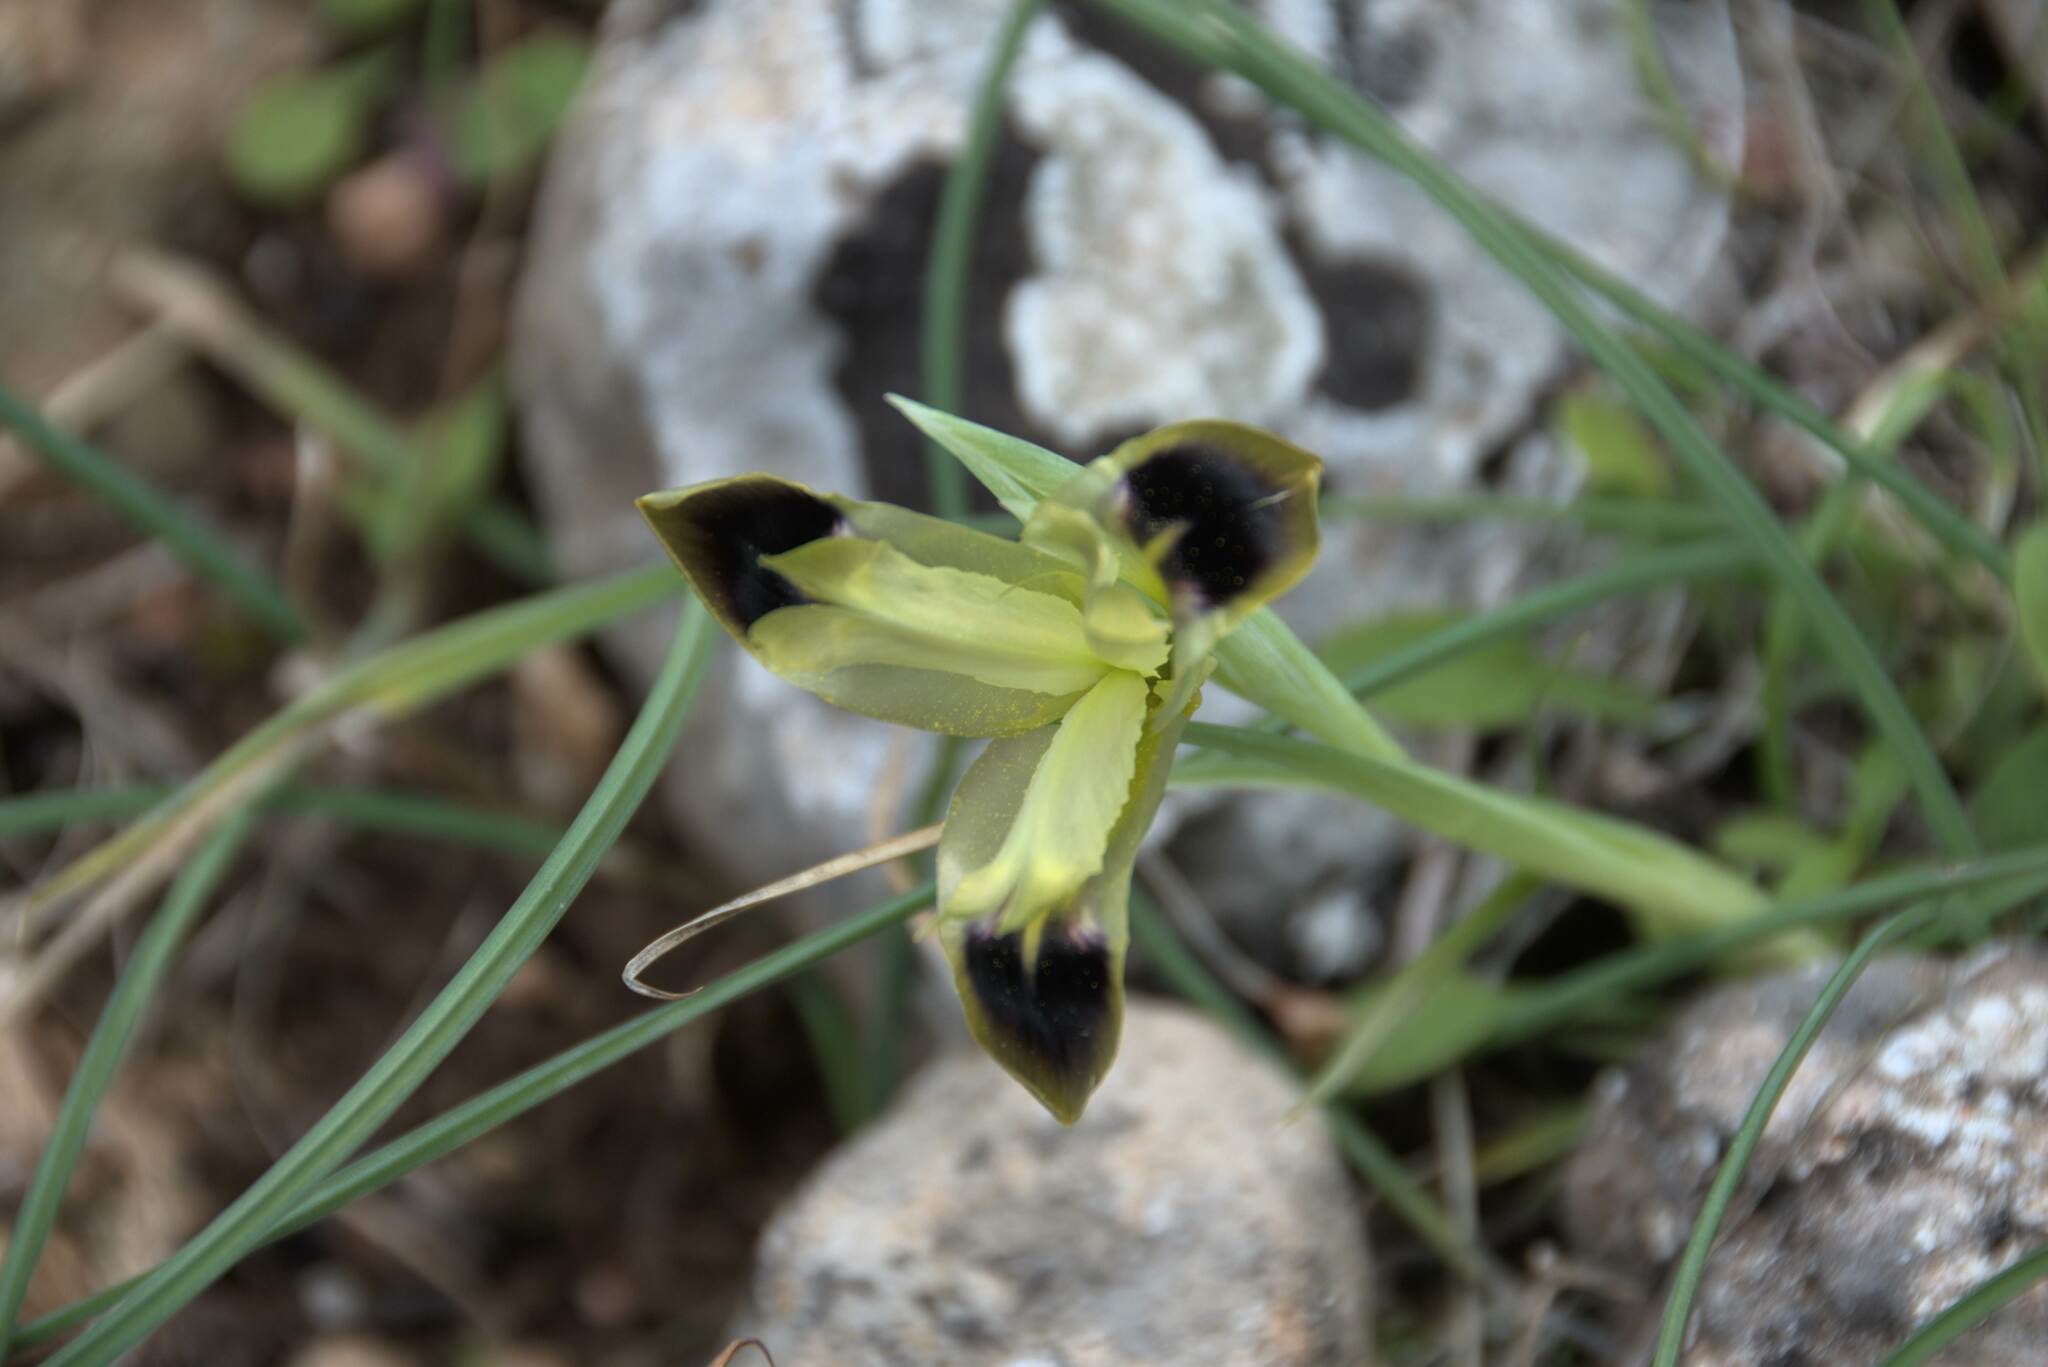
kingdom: Plantae
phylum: Tracheophyta
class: Liliopsida
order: Asparagales
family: Iridaceae
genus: Iris
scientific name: Iris tuberosa
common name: Snake's-head iris
